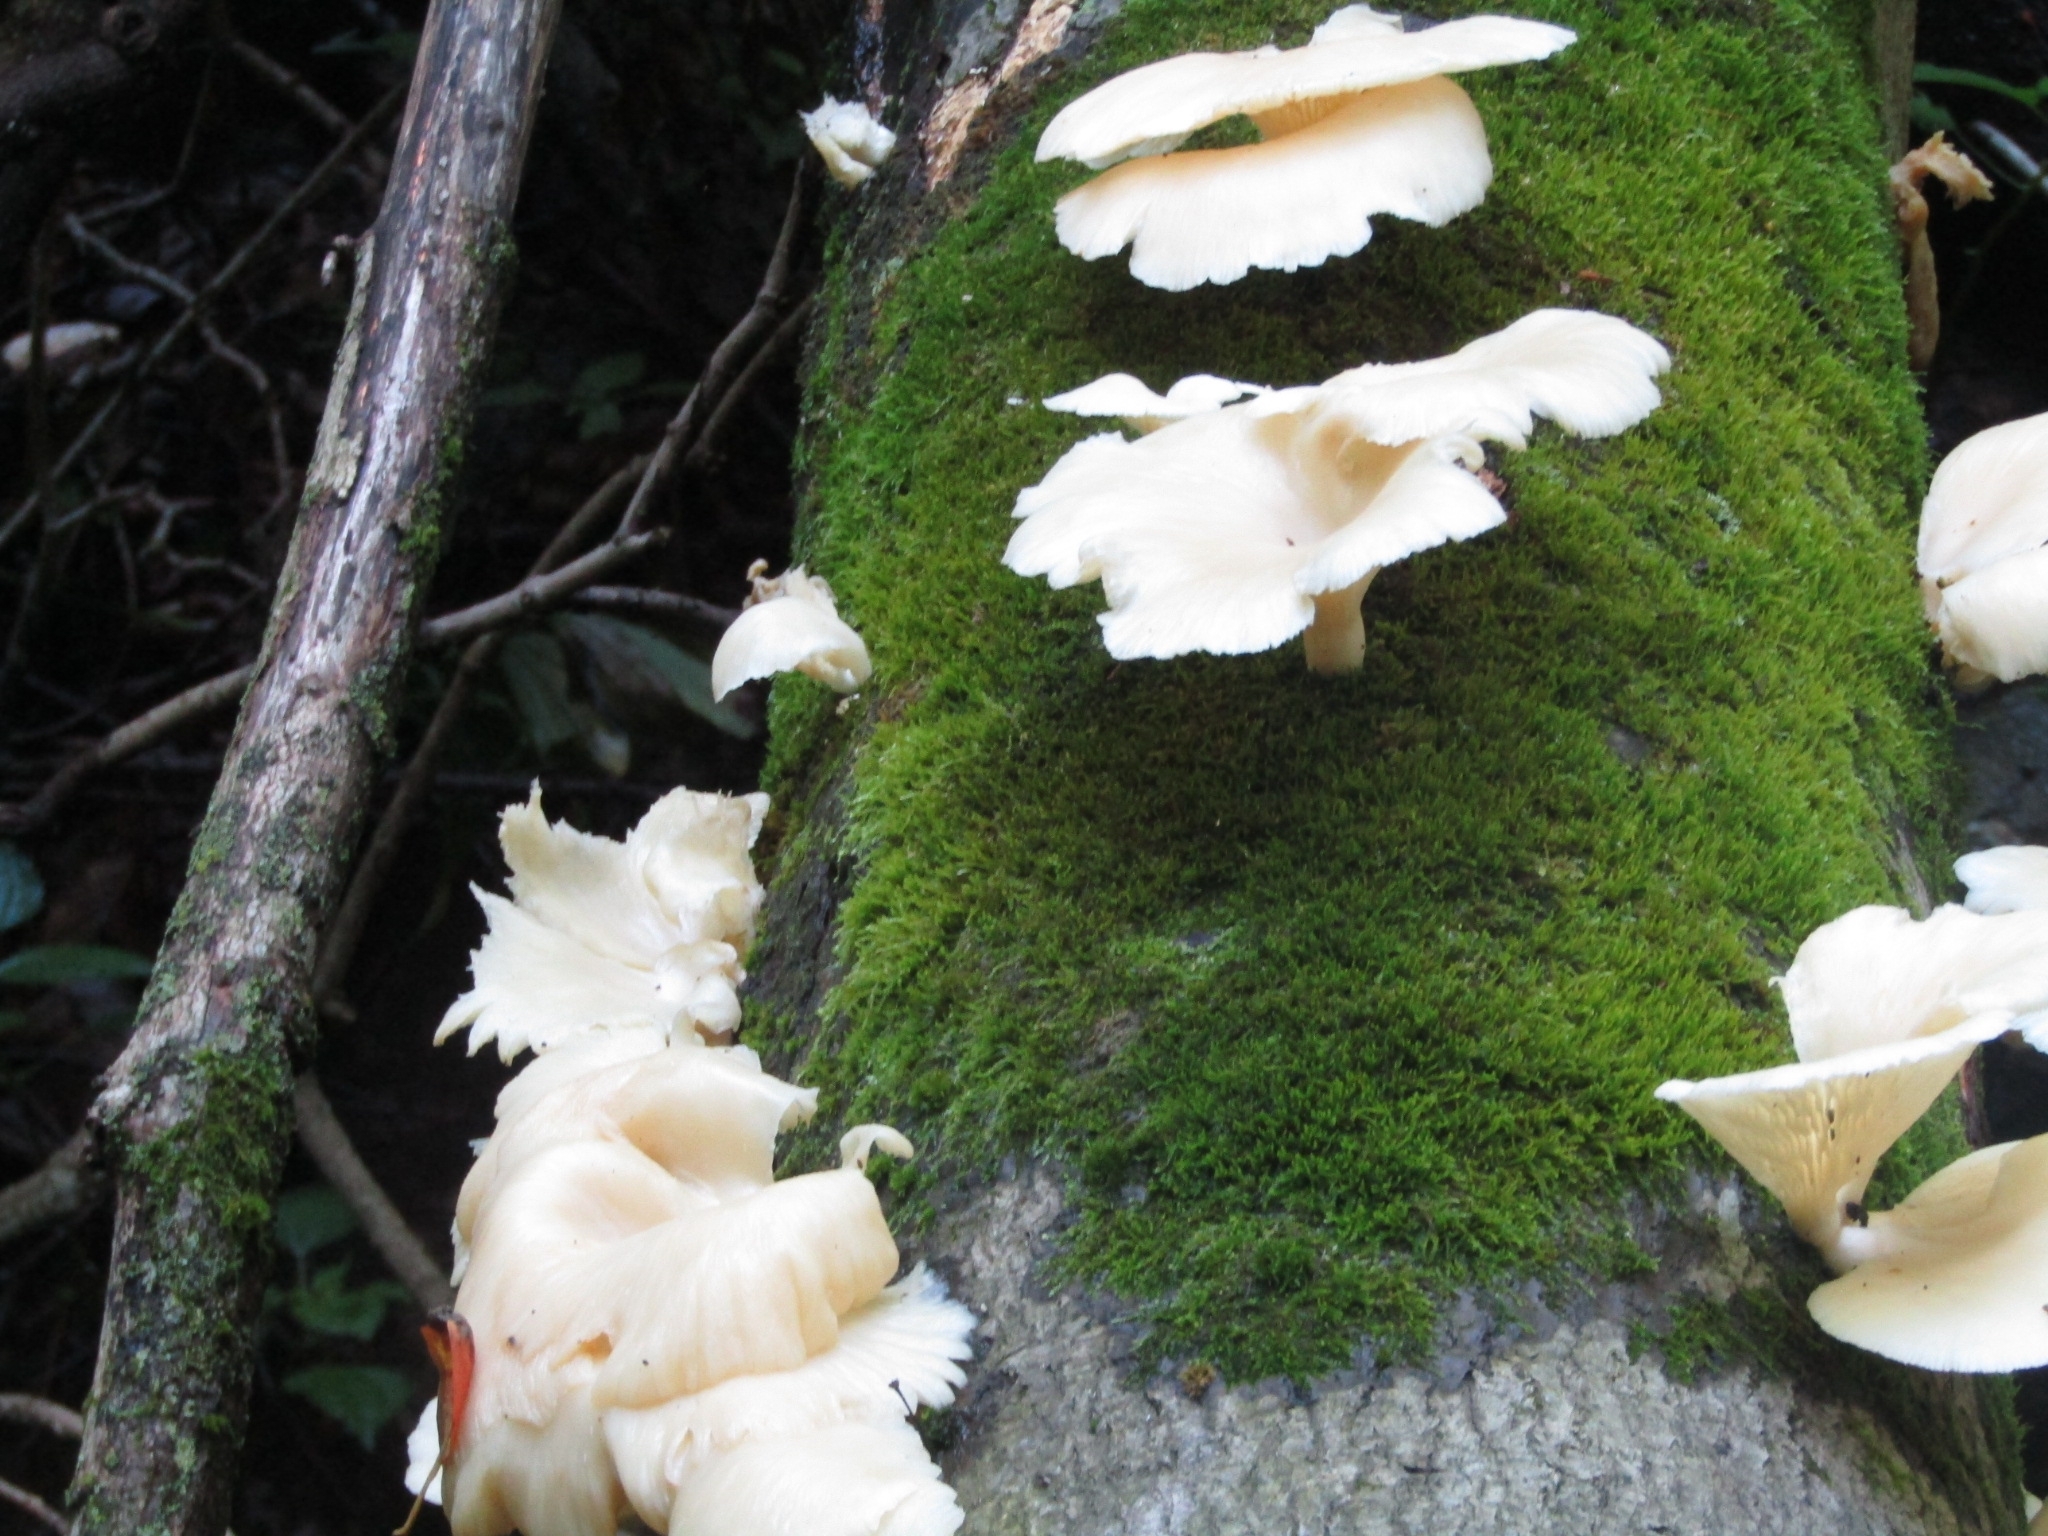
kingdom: Fungi
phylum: Basidiomycota
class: Agaricomycetes
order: Agaricales
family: Pleurotaceae
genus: Pleurotus
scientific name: Pleurotus pulmonarius
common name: Pale oyster
